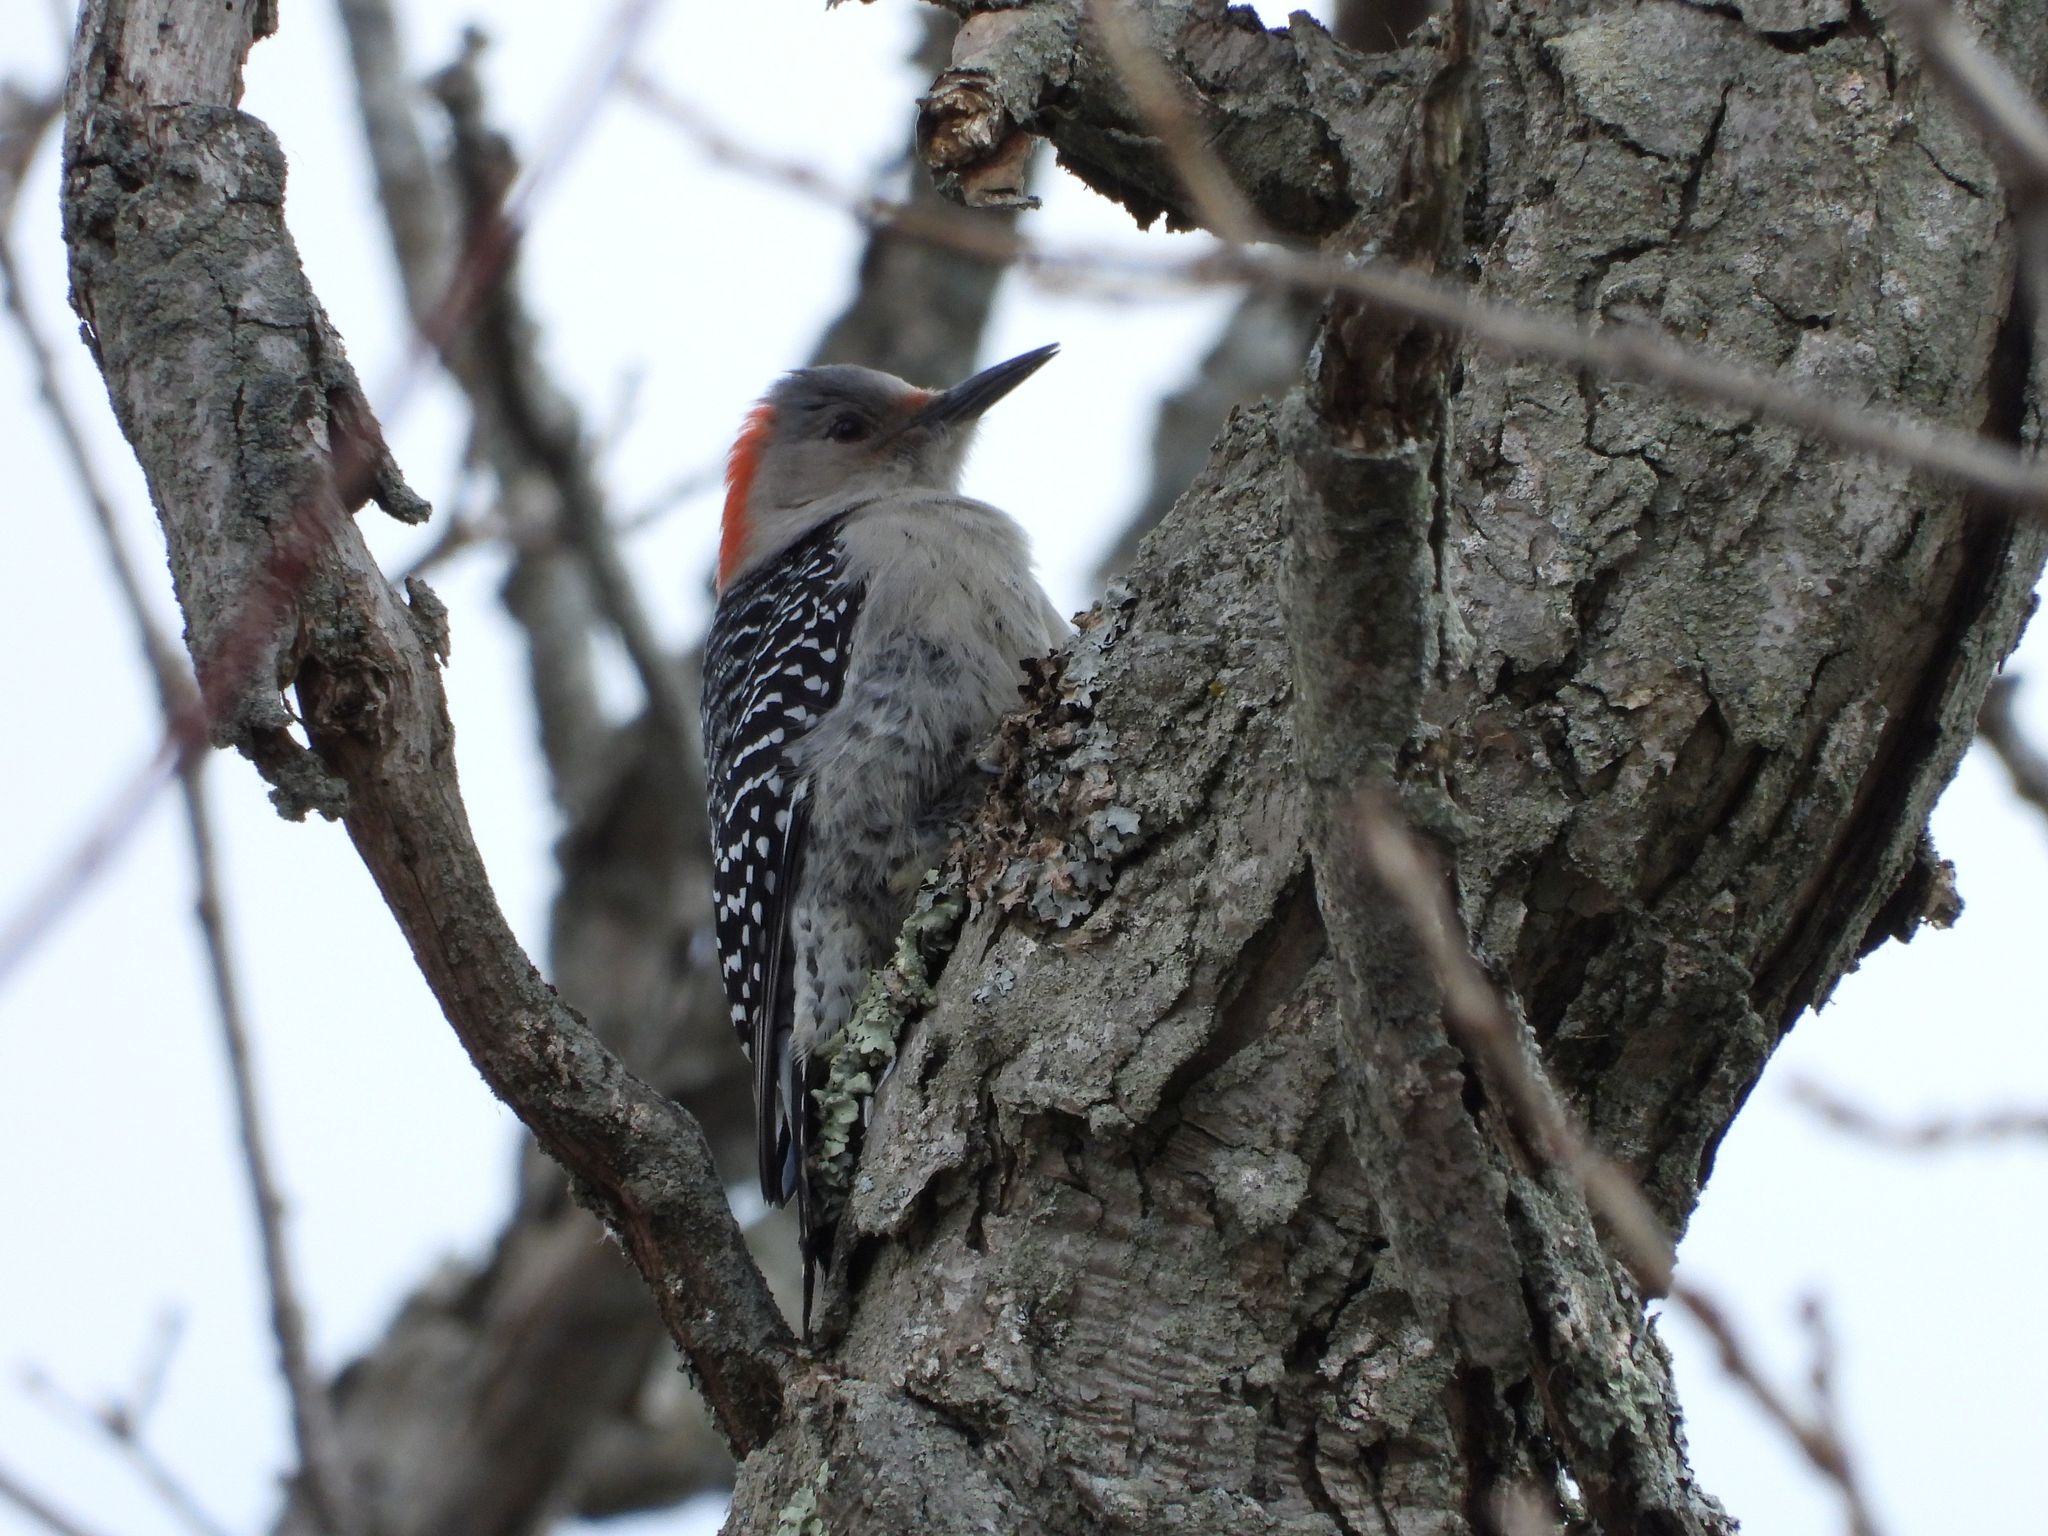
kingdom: Animalia
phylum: Chordata
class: Aves
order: Piciformes
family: Picidae
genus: Melanerpes
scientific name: Melanerpes carolinus
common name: Red-bellied woodpecker
